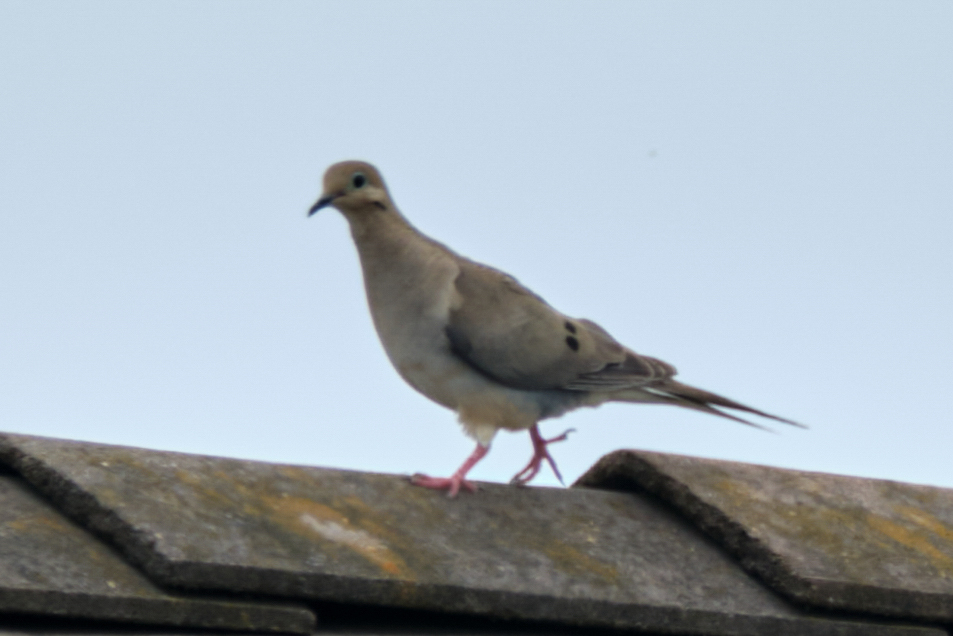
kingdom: Animalia
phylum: Chordata
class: Aves
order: Columbiformes
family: Columbidae
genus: Zenaida
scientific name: Zenaida macroura
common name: Mourning dove
